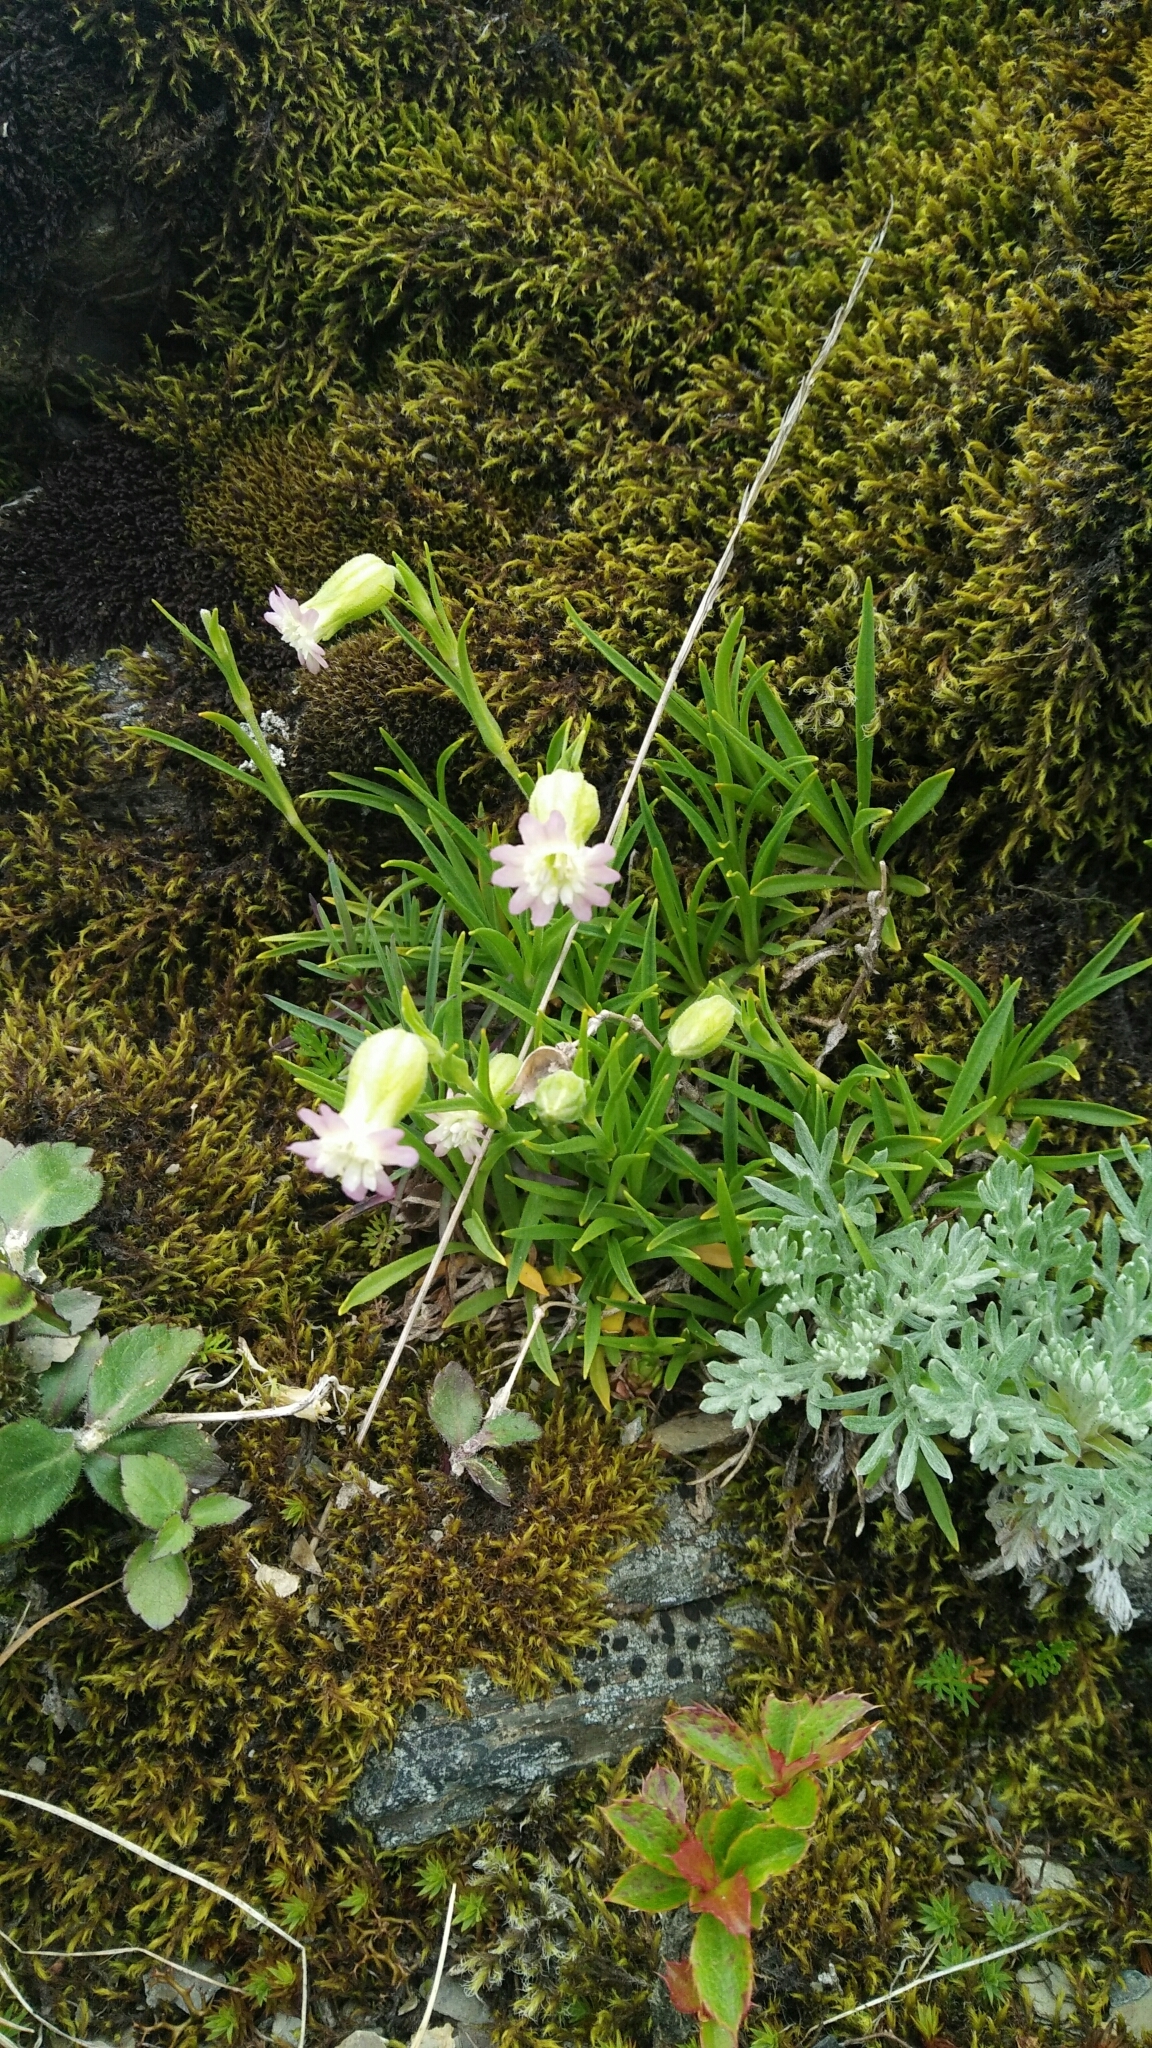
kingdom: Plantae
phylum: Tracheophyta
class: Magnoliopsida
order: Caryophyllales
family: Caryophyllaceae
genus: Silene
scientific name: Silene ohwii
